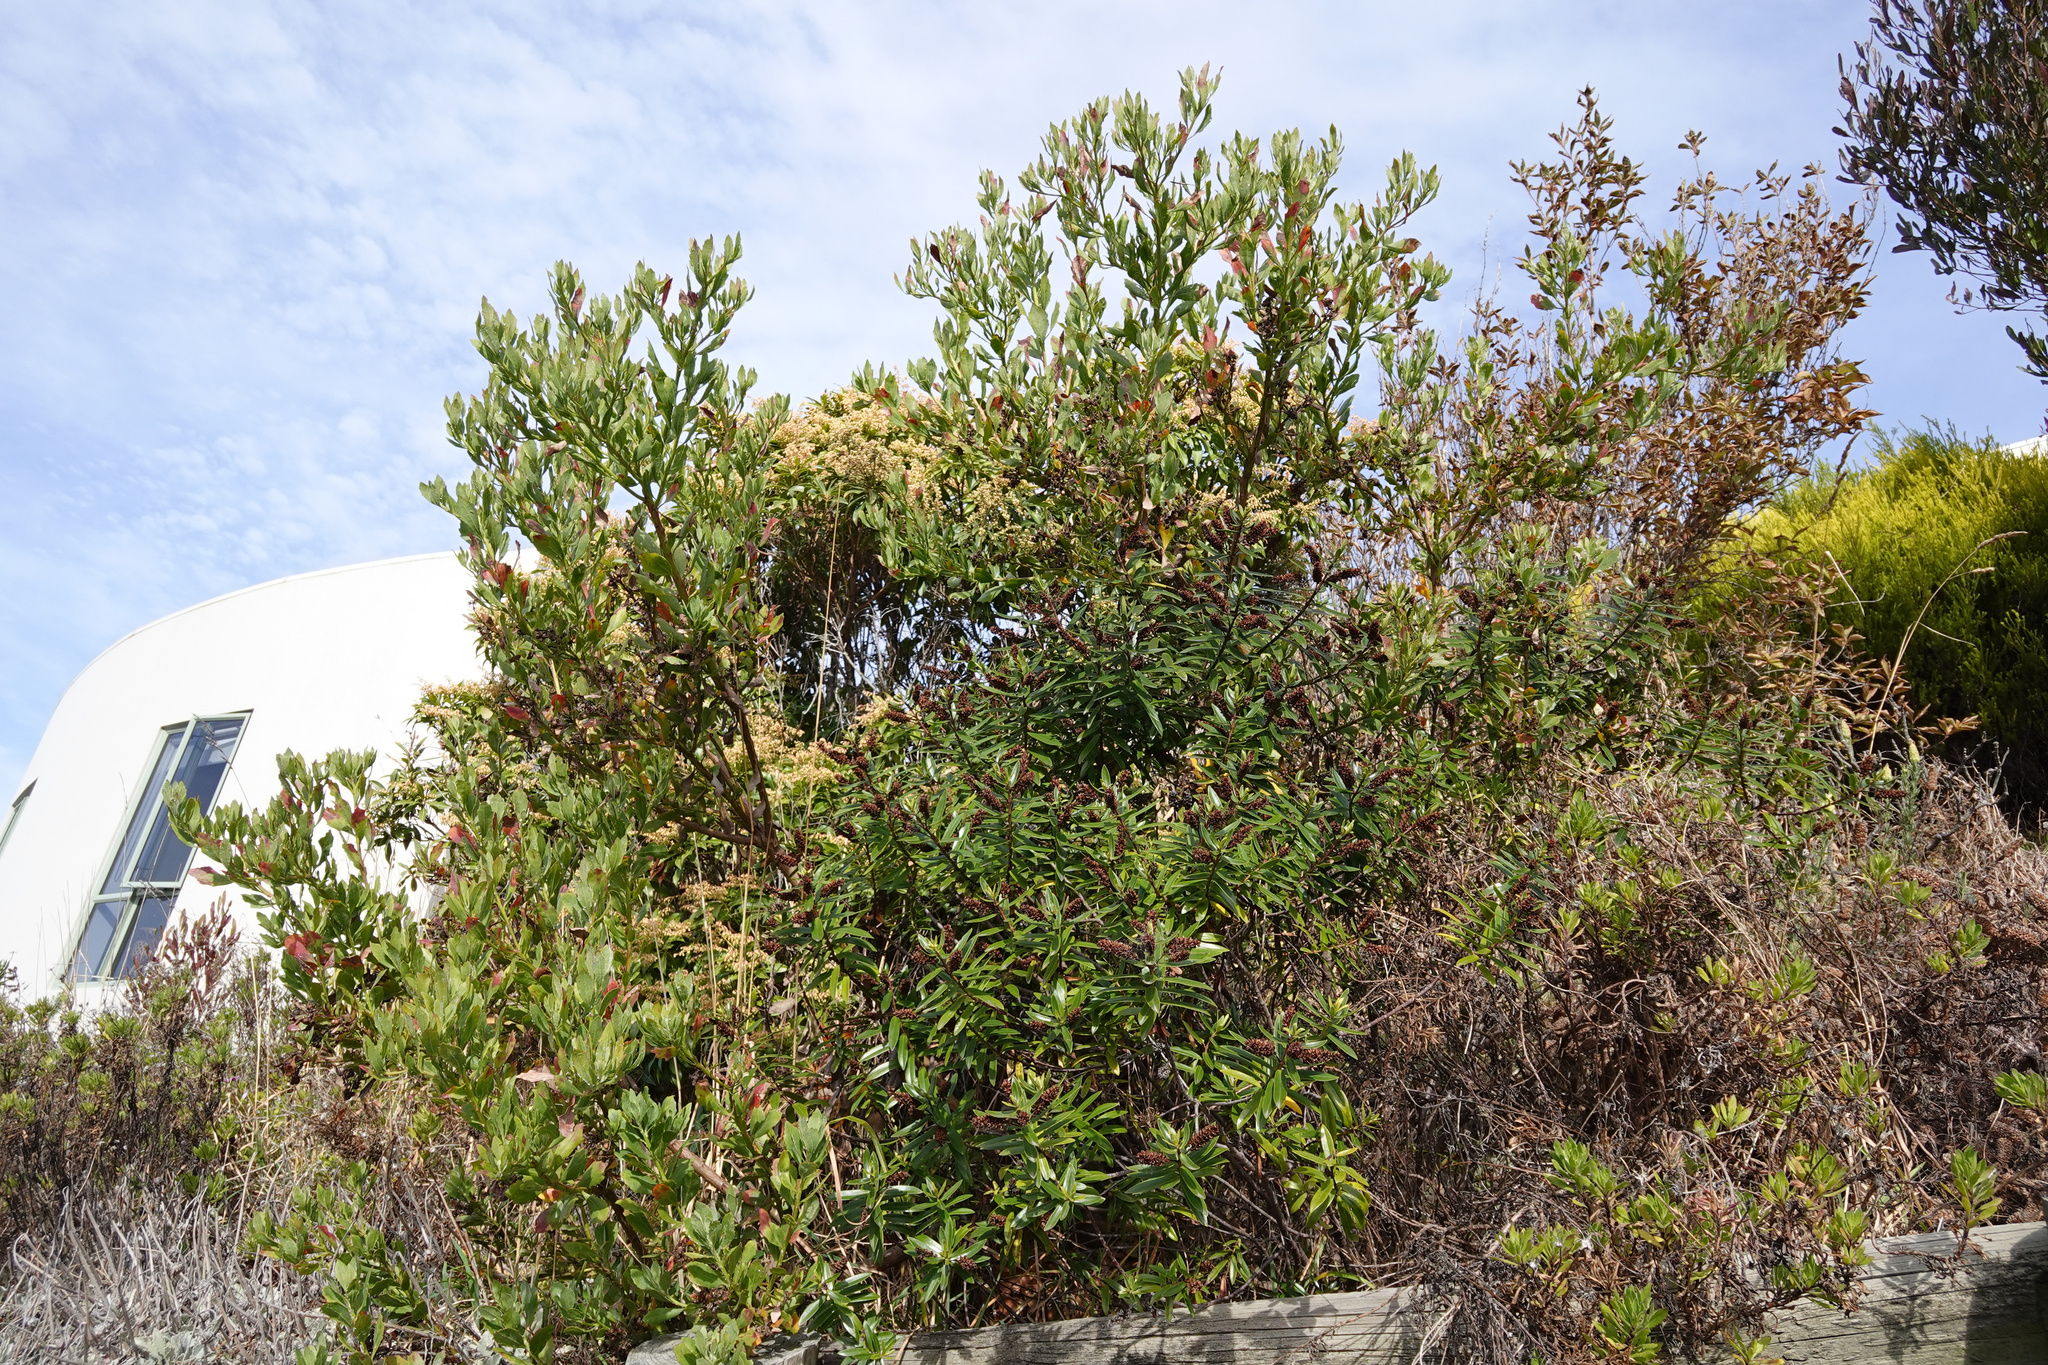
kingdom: Plantae
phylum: Tracheophyta
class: Magnoliopsida
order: Asterales
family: Asteraceae
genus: Osteospermum
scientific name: Osteospermum moniliferum
